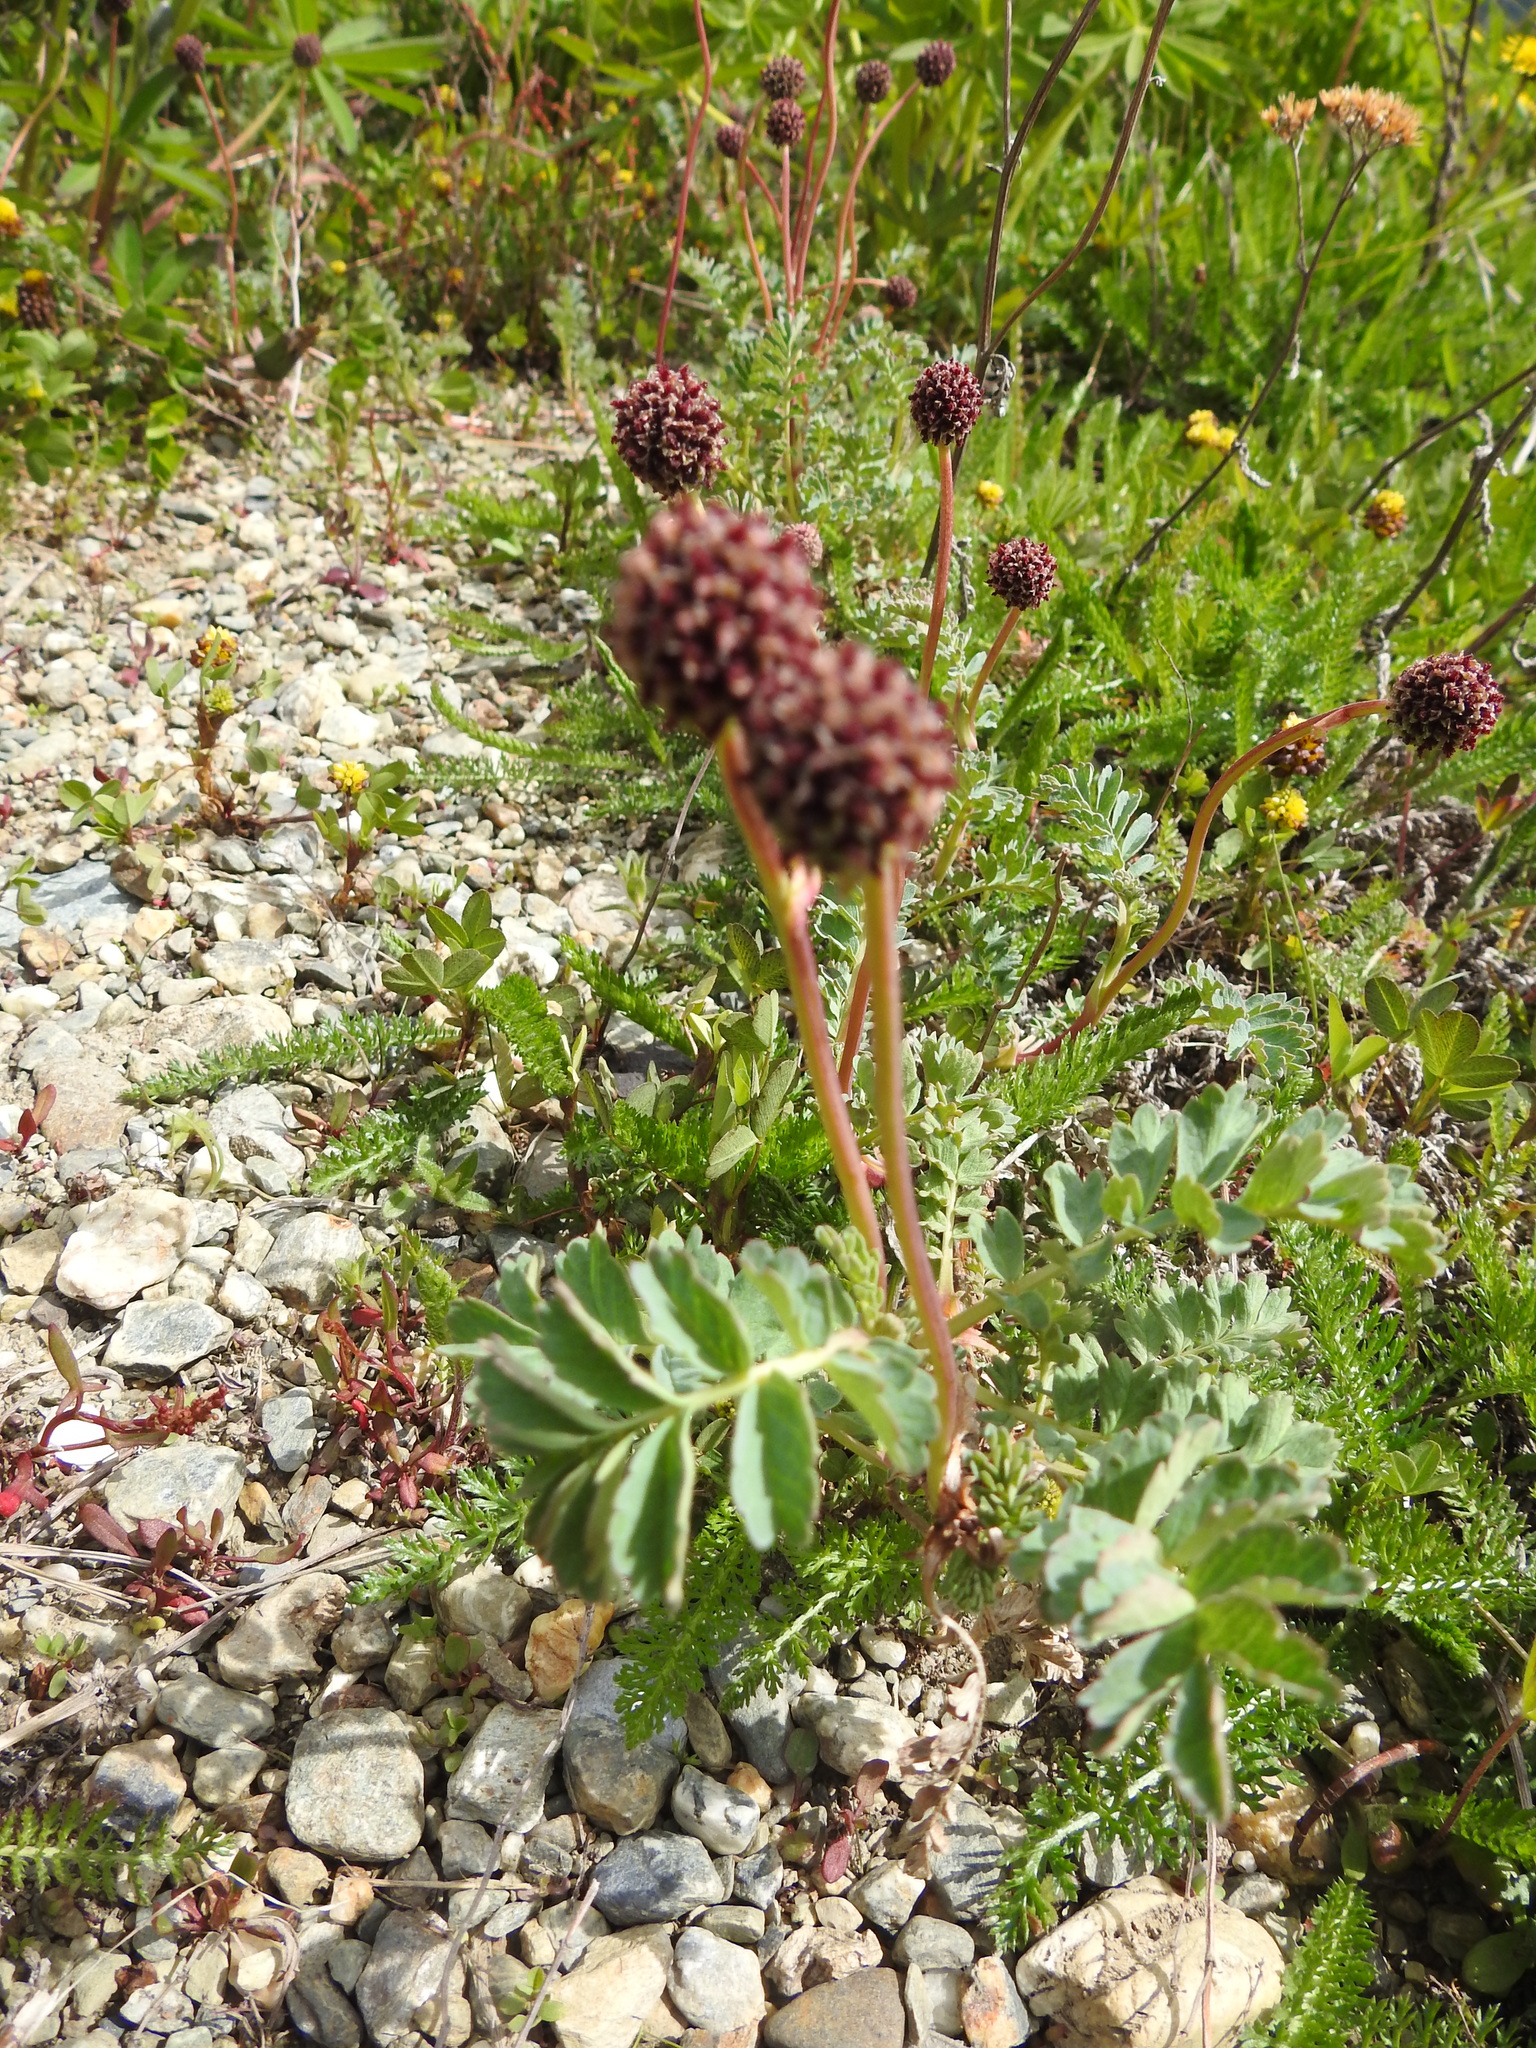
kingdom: Plantae
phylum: Tracheophyta
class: Magnoliopsida
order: Rosales
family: Rosaceae
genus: Acaena
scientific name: Acaena magellanica
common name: New zealand burr
